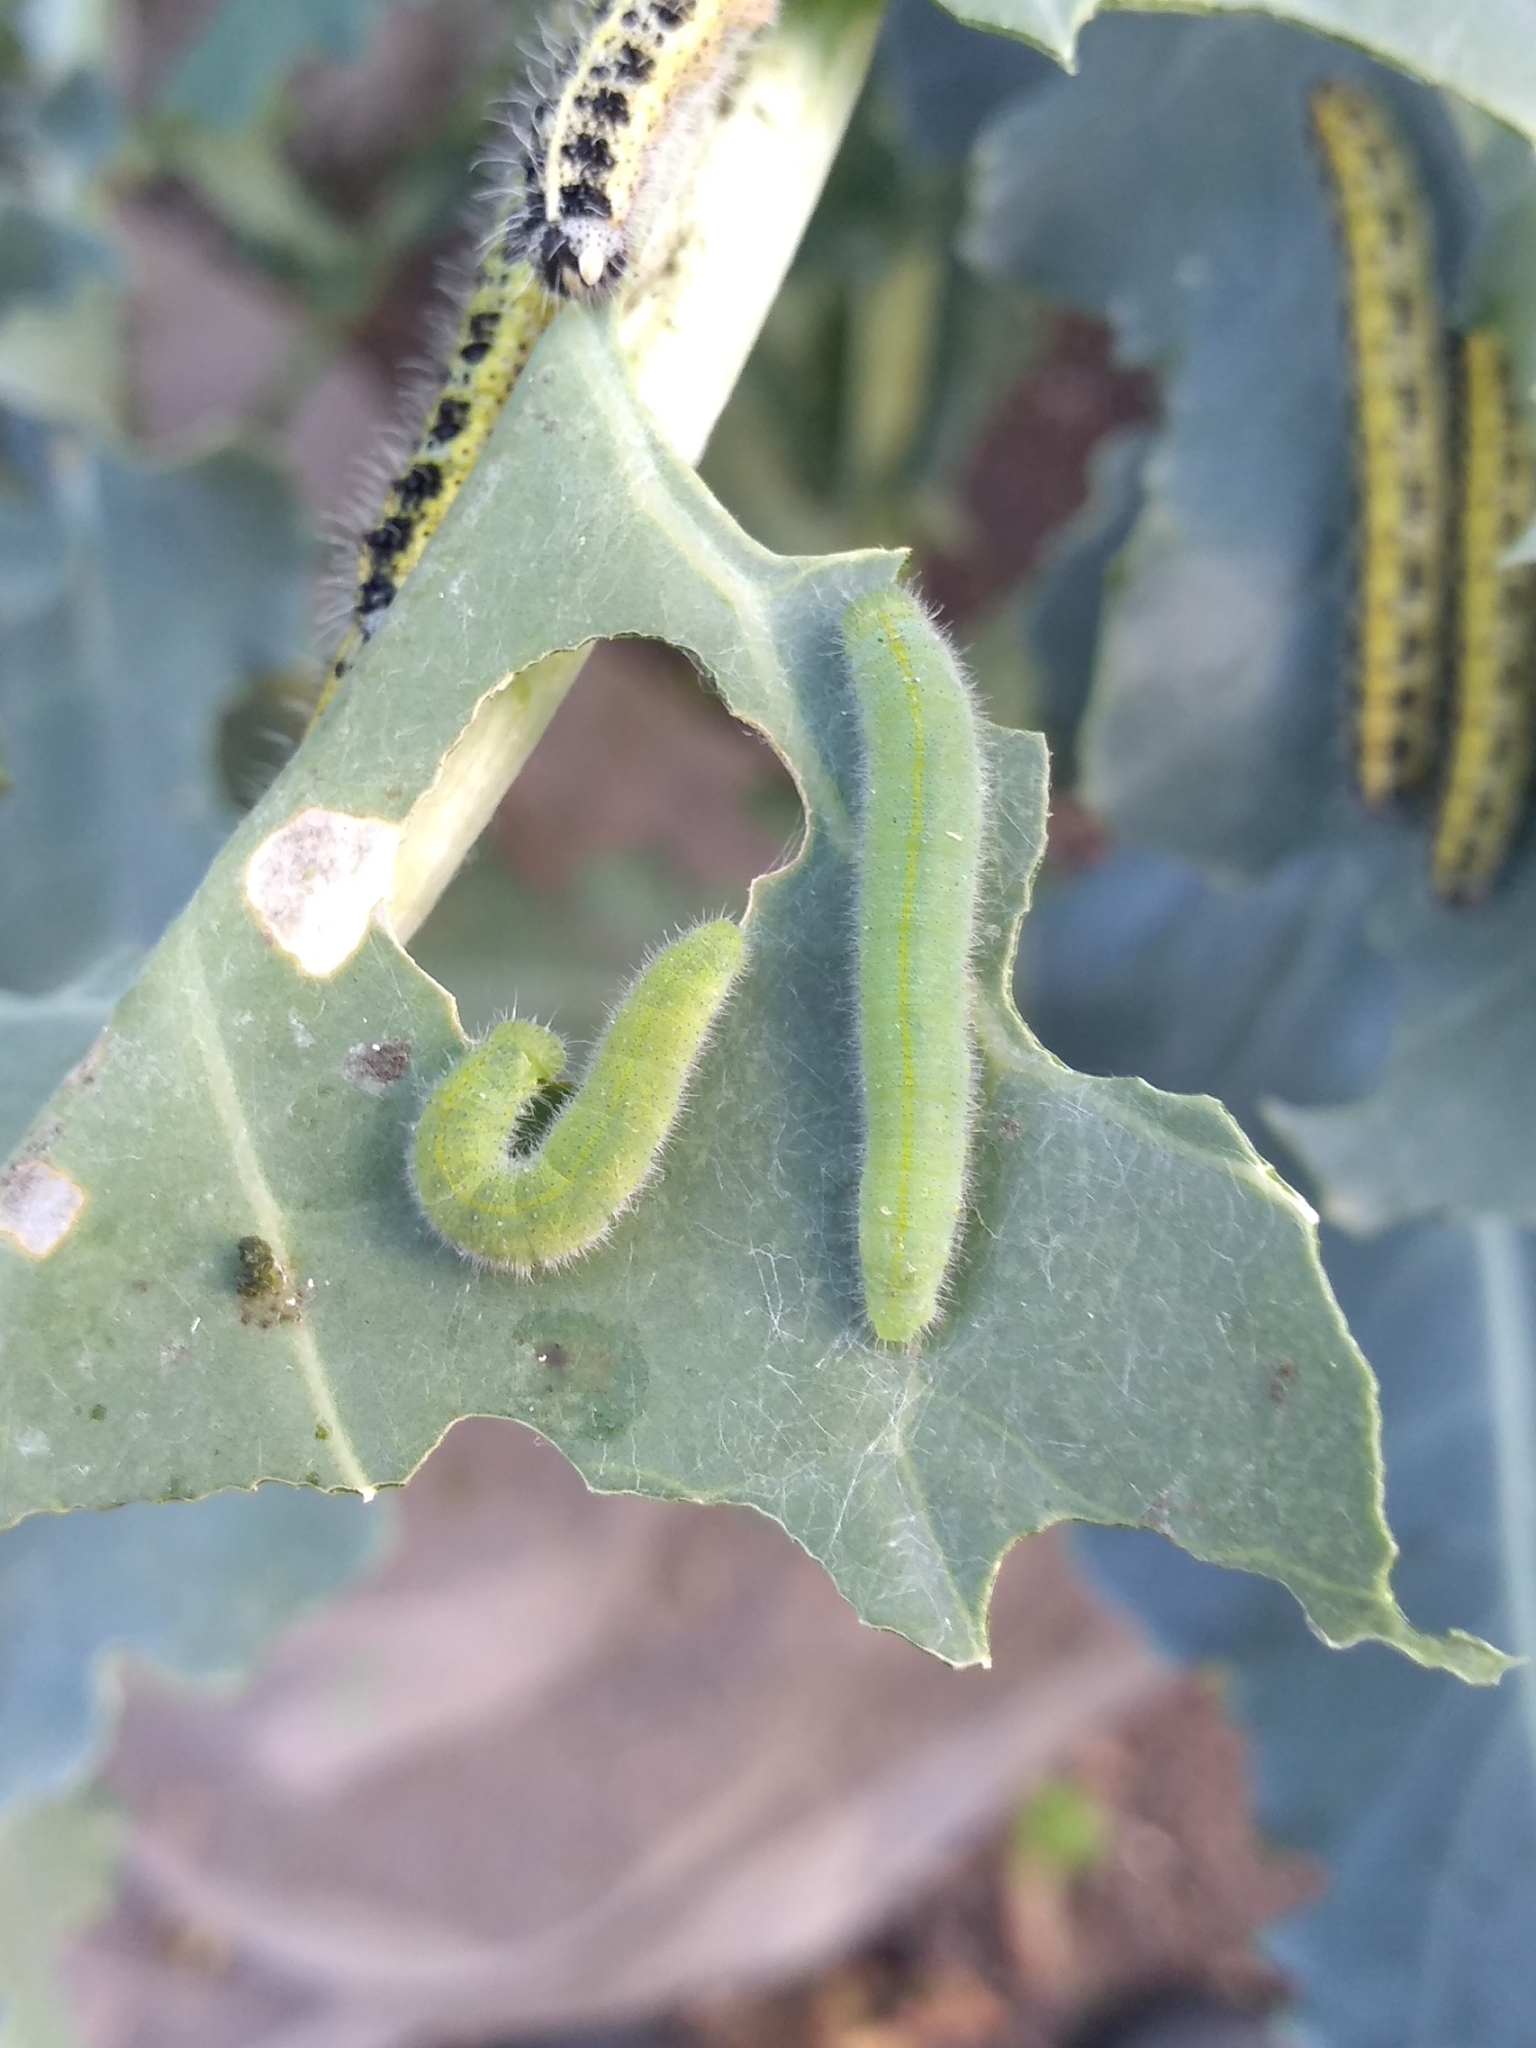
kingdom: Animalia
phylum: Arthropoda
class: Insecta
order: Lepidoptera
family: Pieridae
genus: Pieris
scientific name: Pieris rapae
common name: Small white
